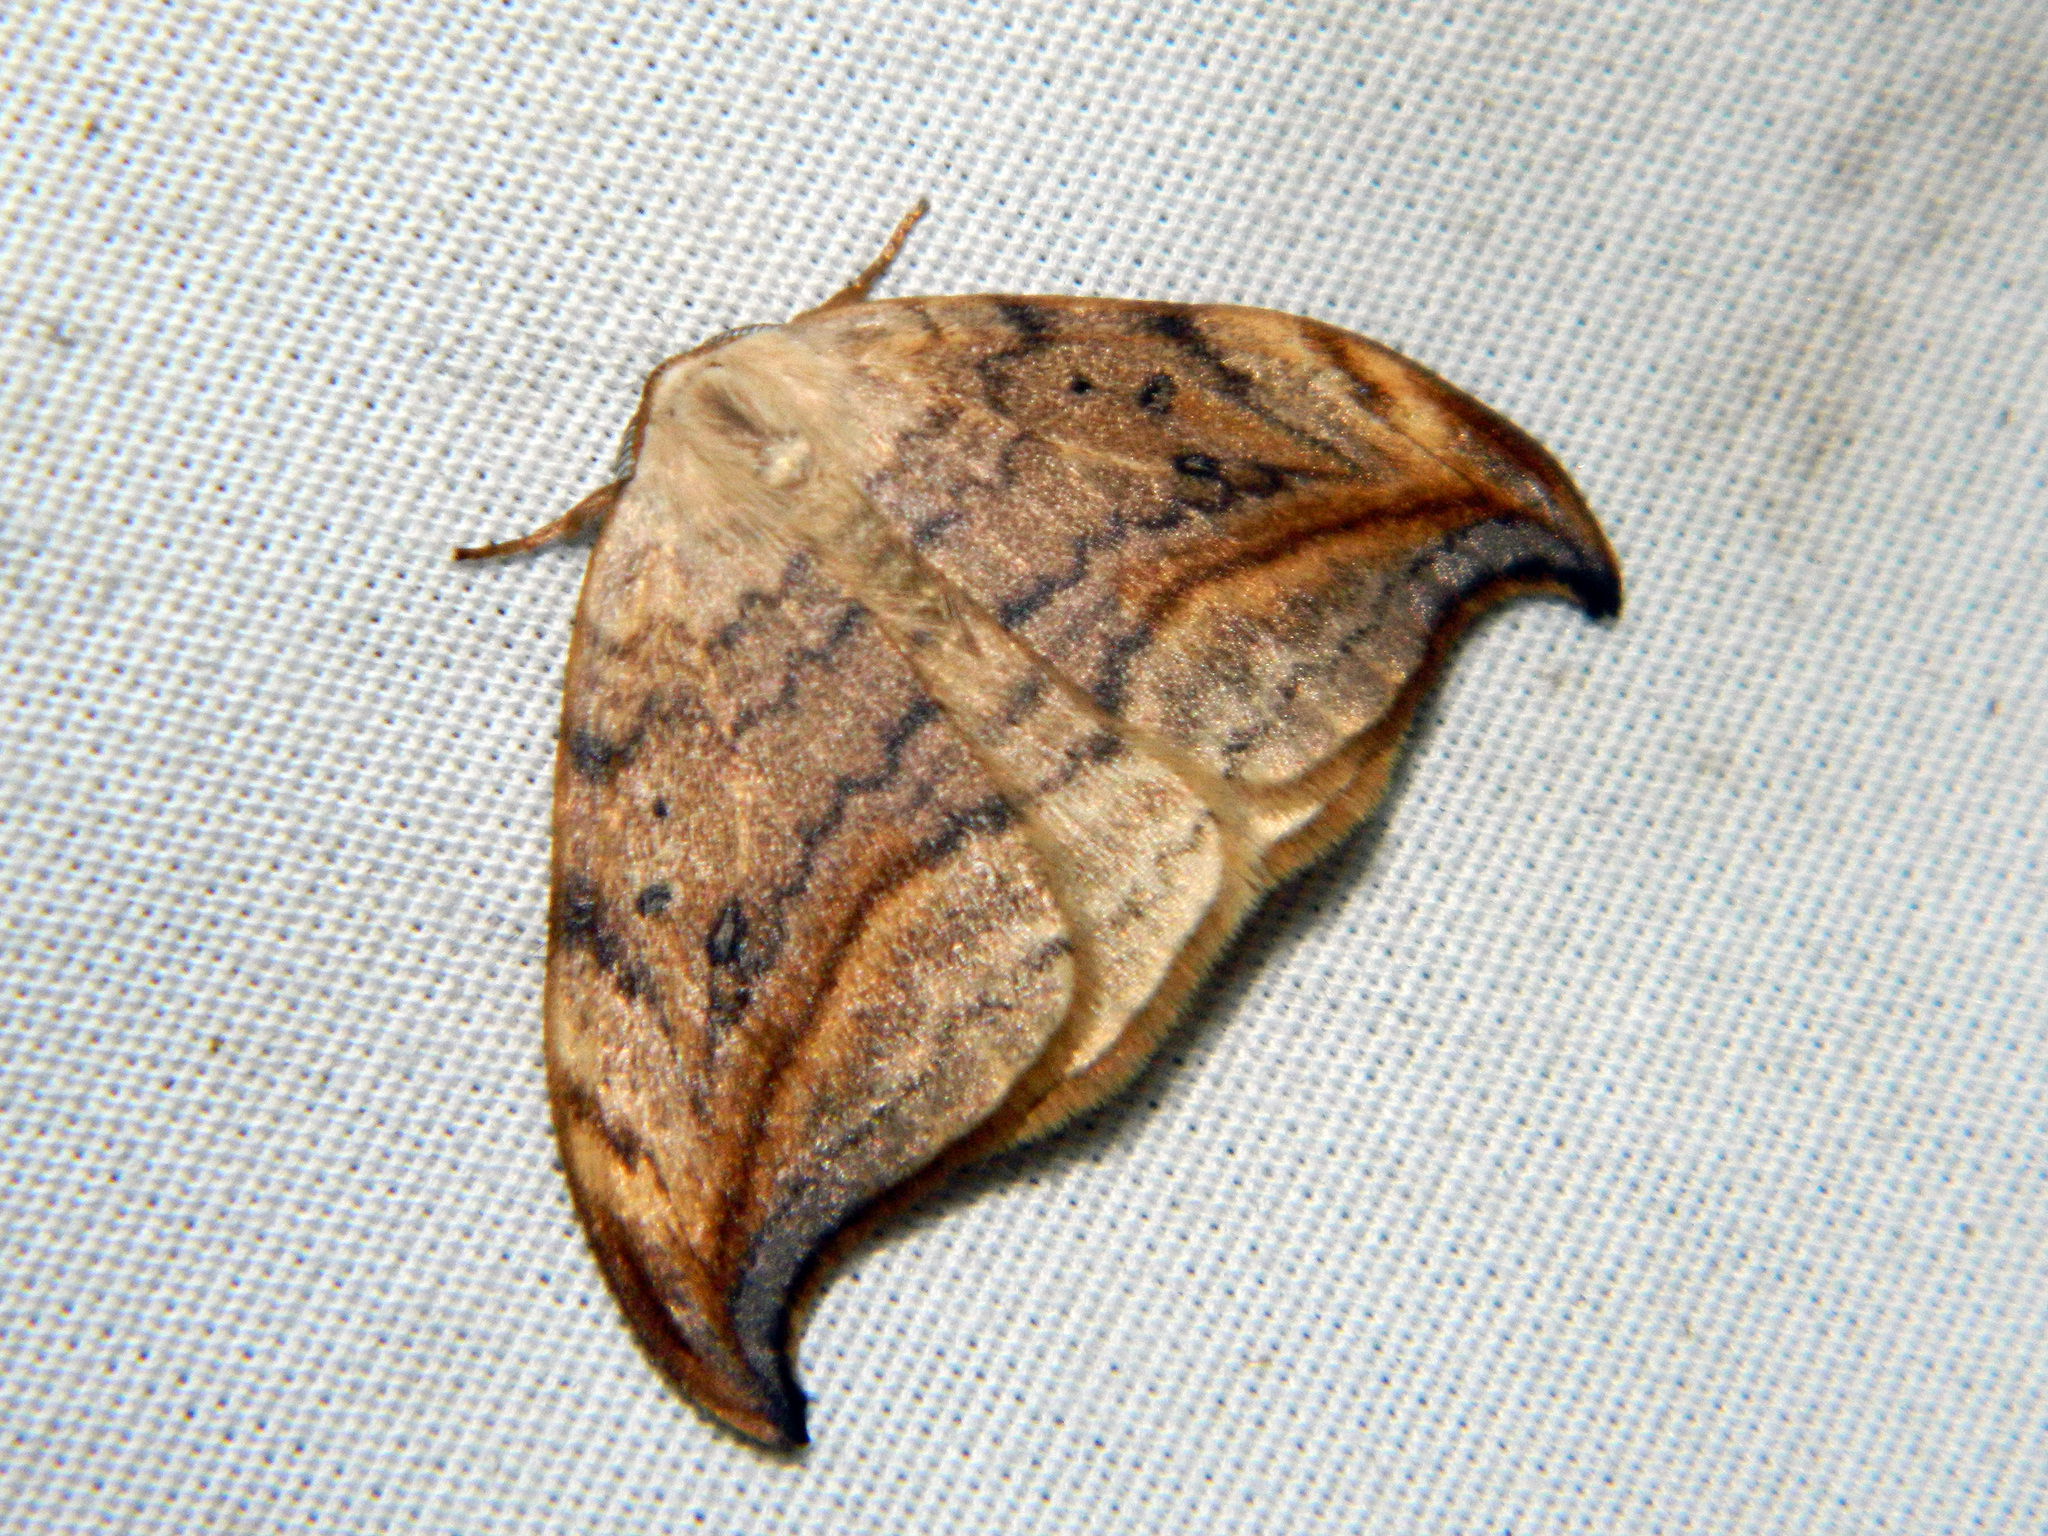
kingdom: Animalia
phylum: Arthropoda
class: Insecta
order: Lepidoptera
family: Drepanidae
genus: Drepana
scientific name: Drepana arcuata
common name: Arched hooktip moth
